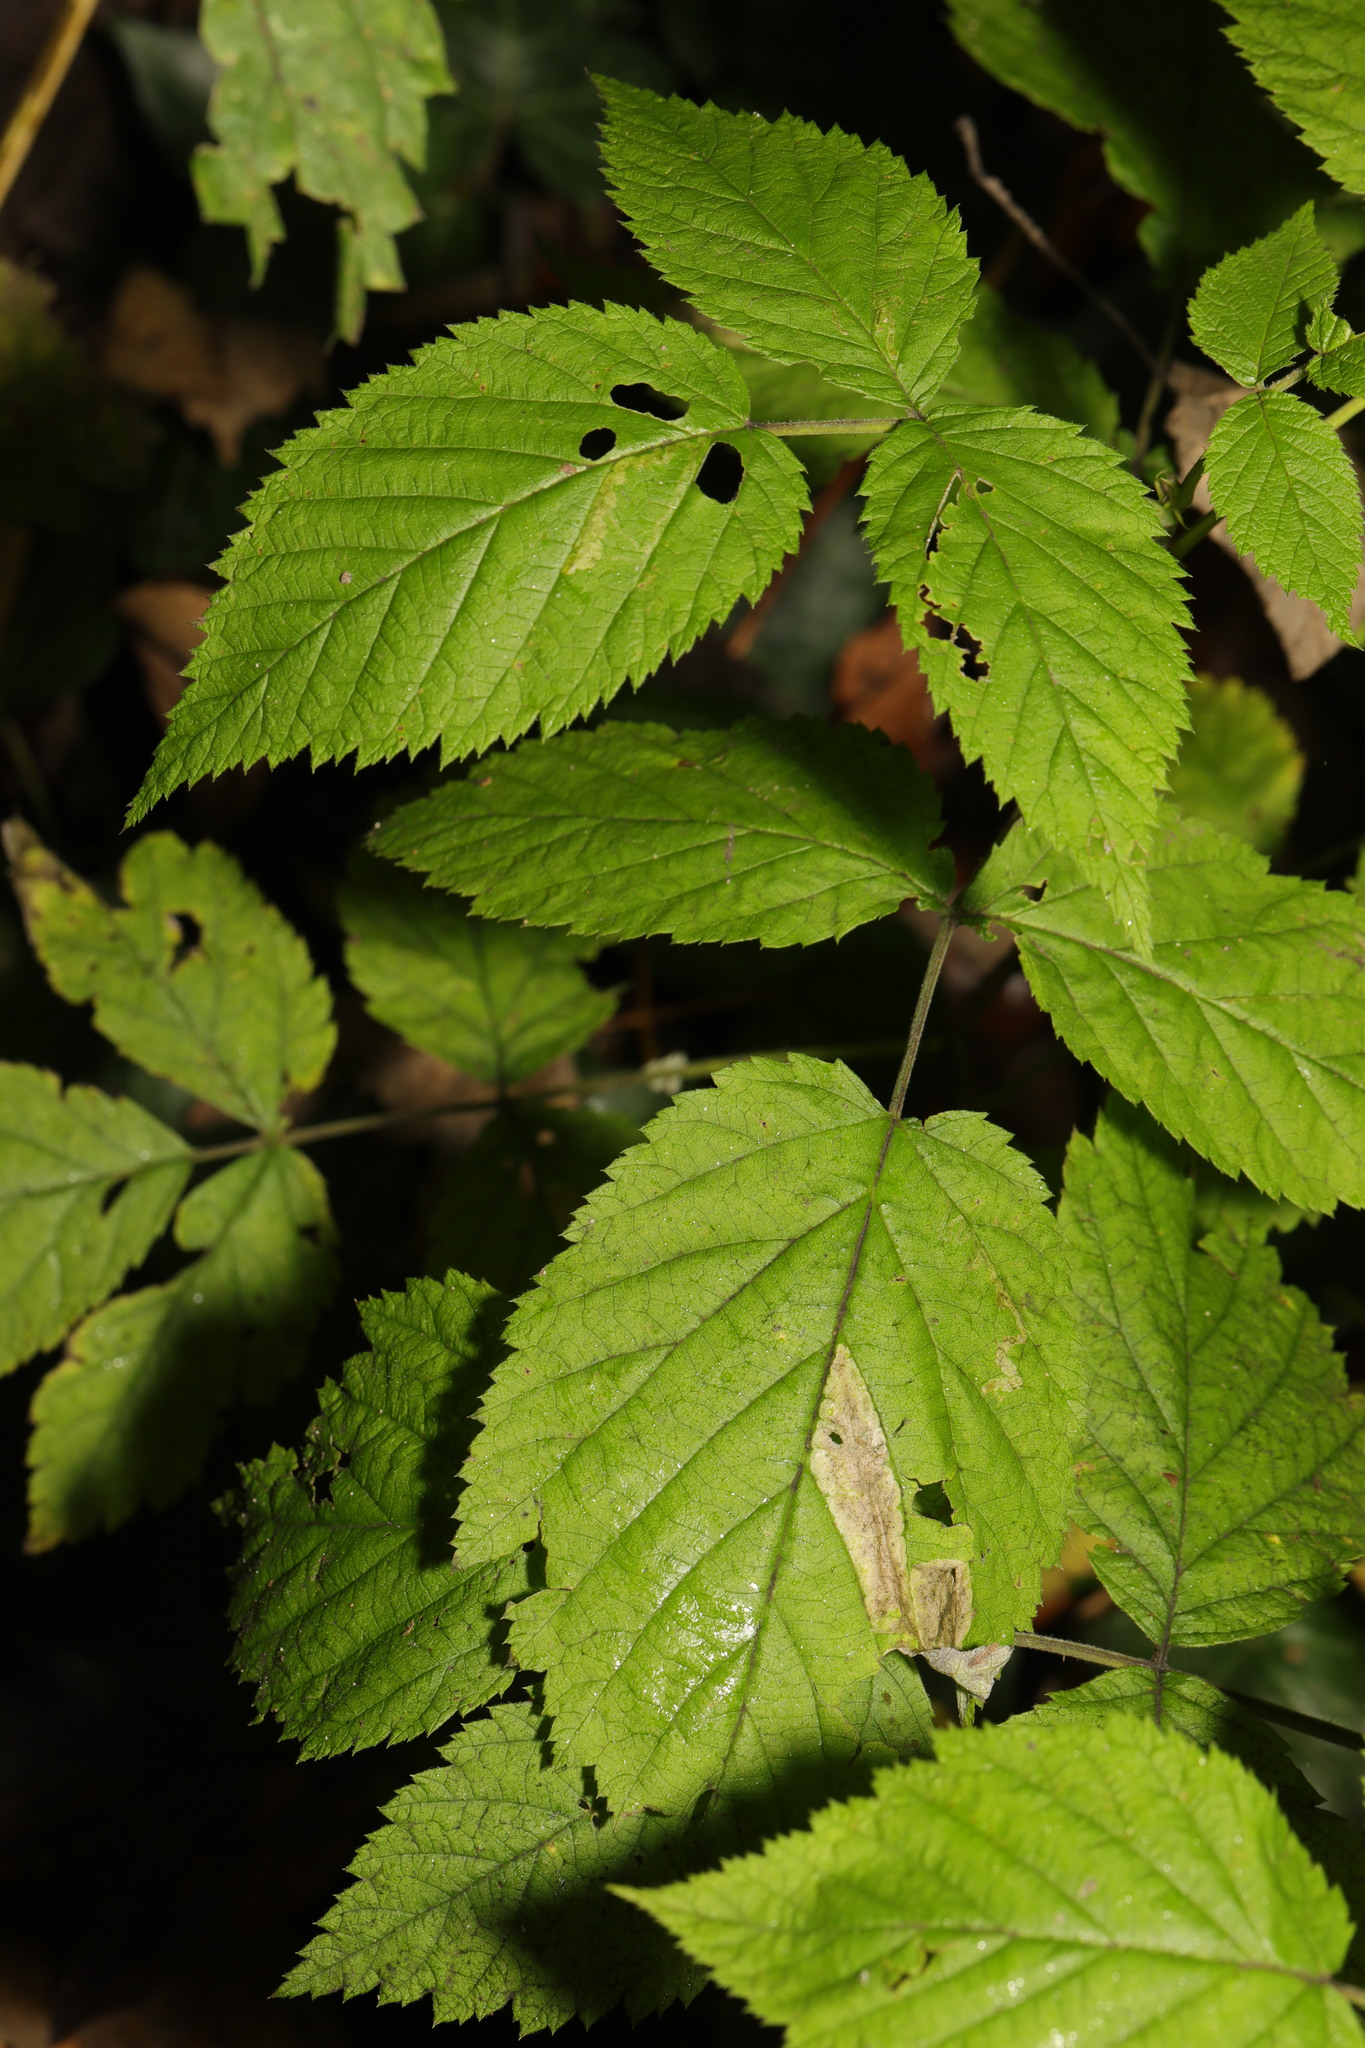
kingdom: Plantae
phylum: Tracheophyta
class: Magnoliopsida
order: Rosales
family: Rosaceae
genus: Rubus
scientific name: Rubus idaeus
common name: Raspberry
